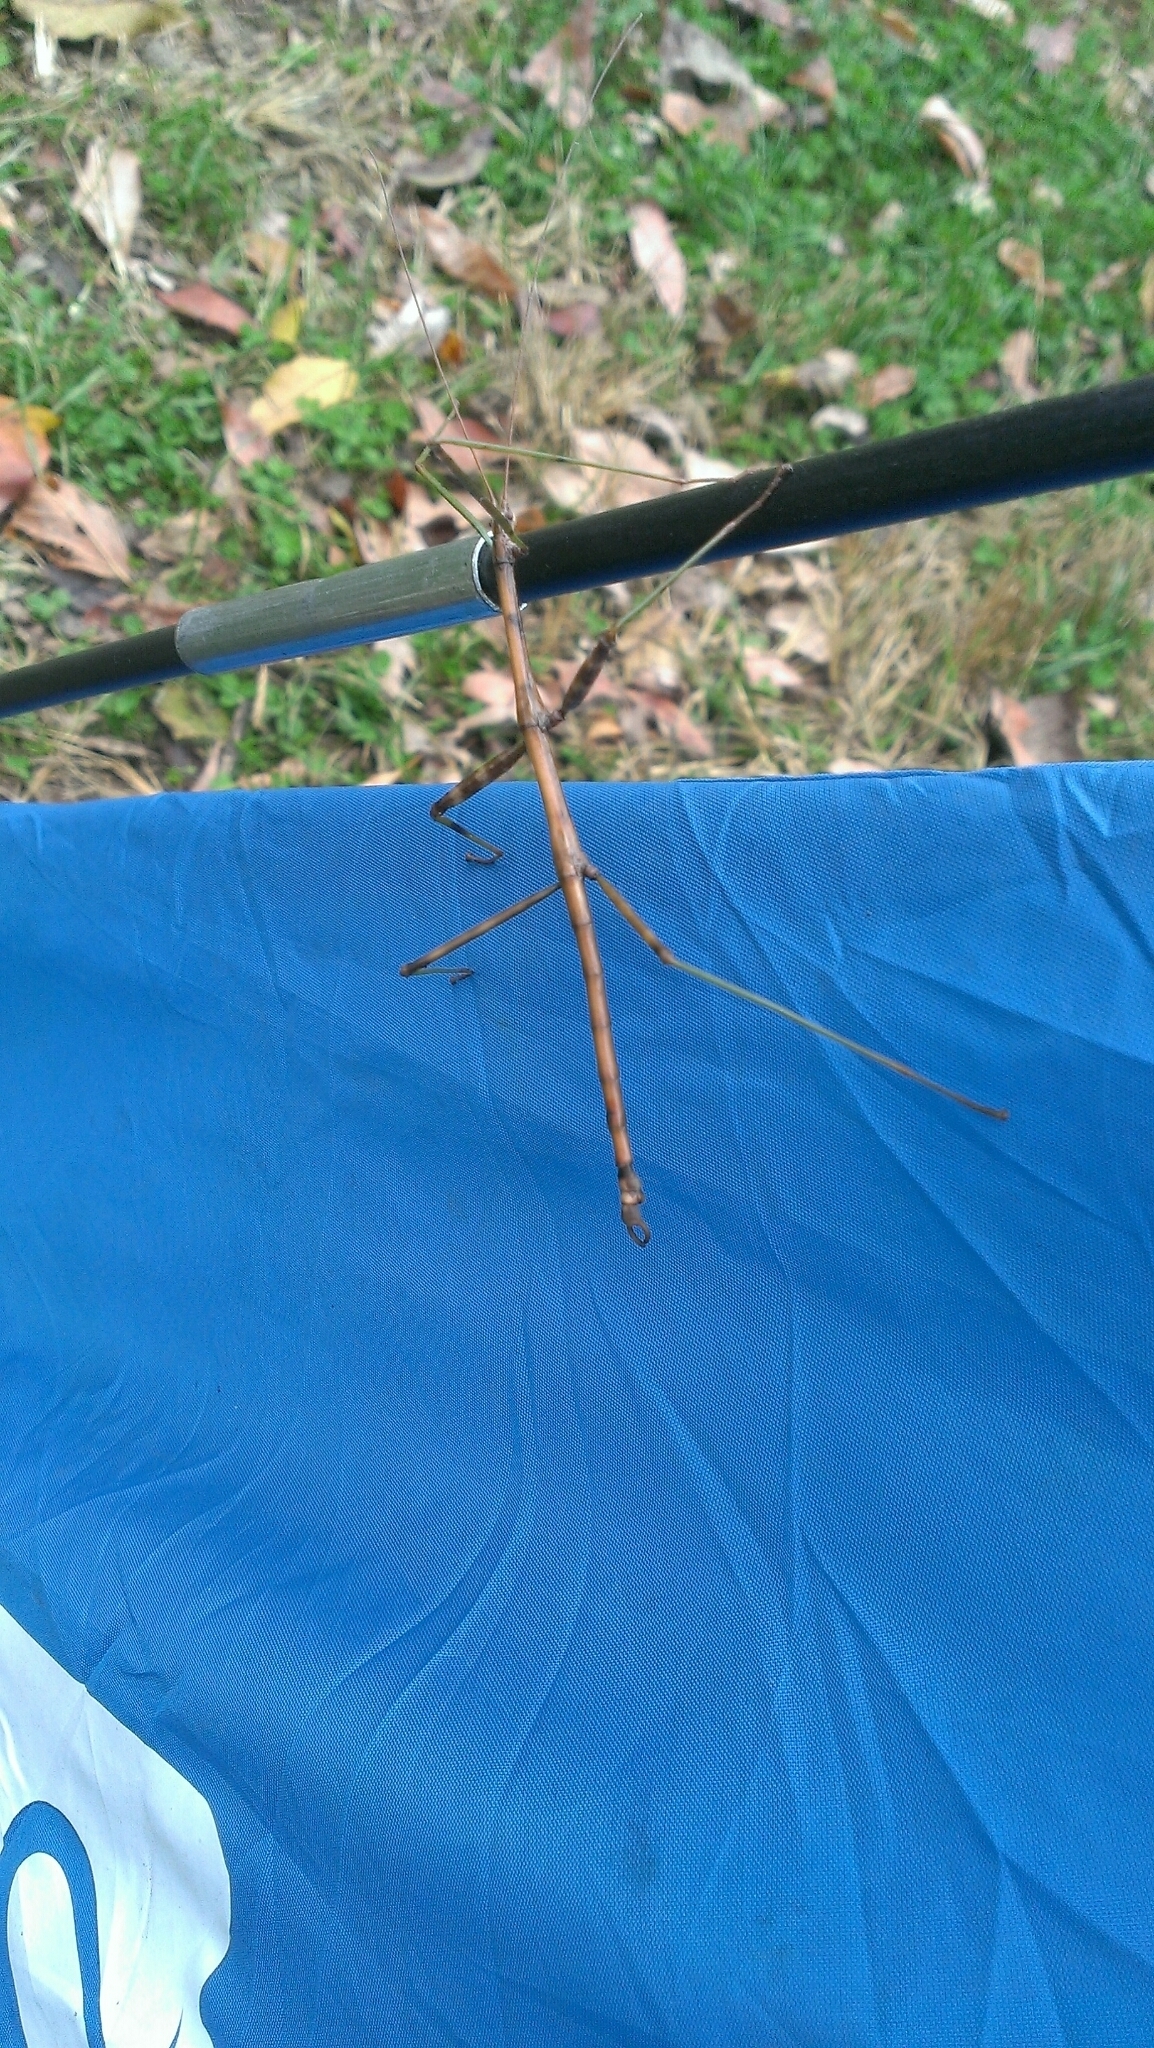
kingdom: Animalia
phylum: Arthropoda
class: Insecta
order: Phasmida
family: Diapheromeridae
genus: Diapheromera
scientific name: Diapheromera femorata
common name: Common american walkingstick
